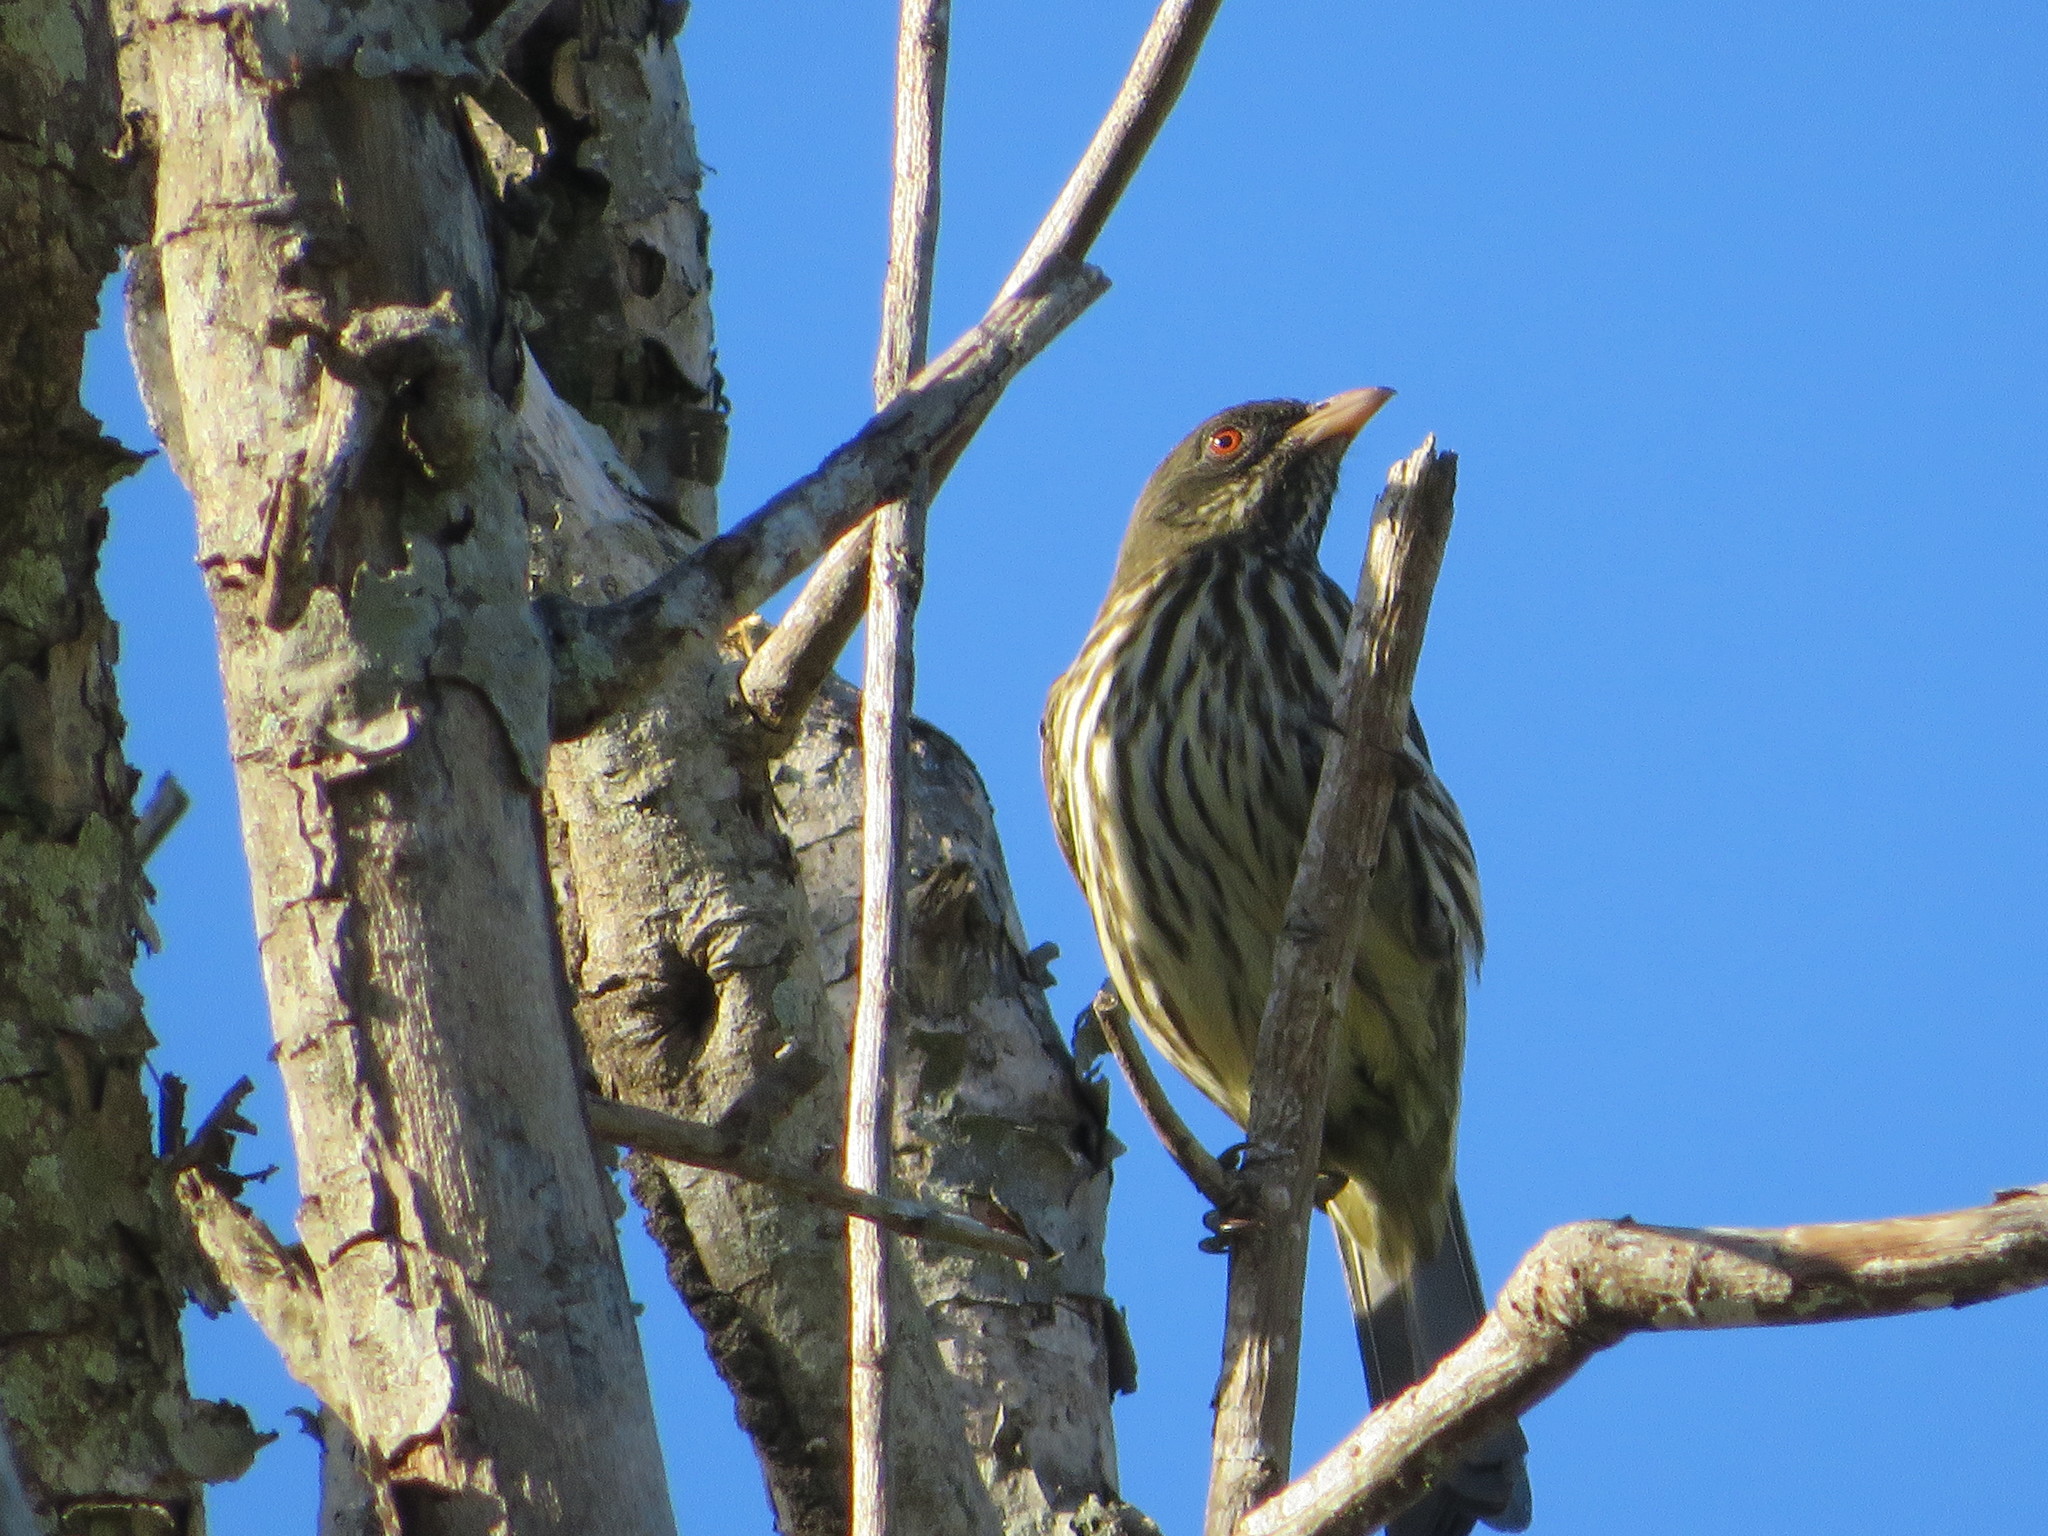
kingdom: Animalia
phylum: Chordata
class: Aves
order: Passeriformes
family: Dulidae
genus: Dulus
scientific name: Dulus dominicus
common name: Palmchat
